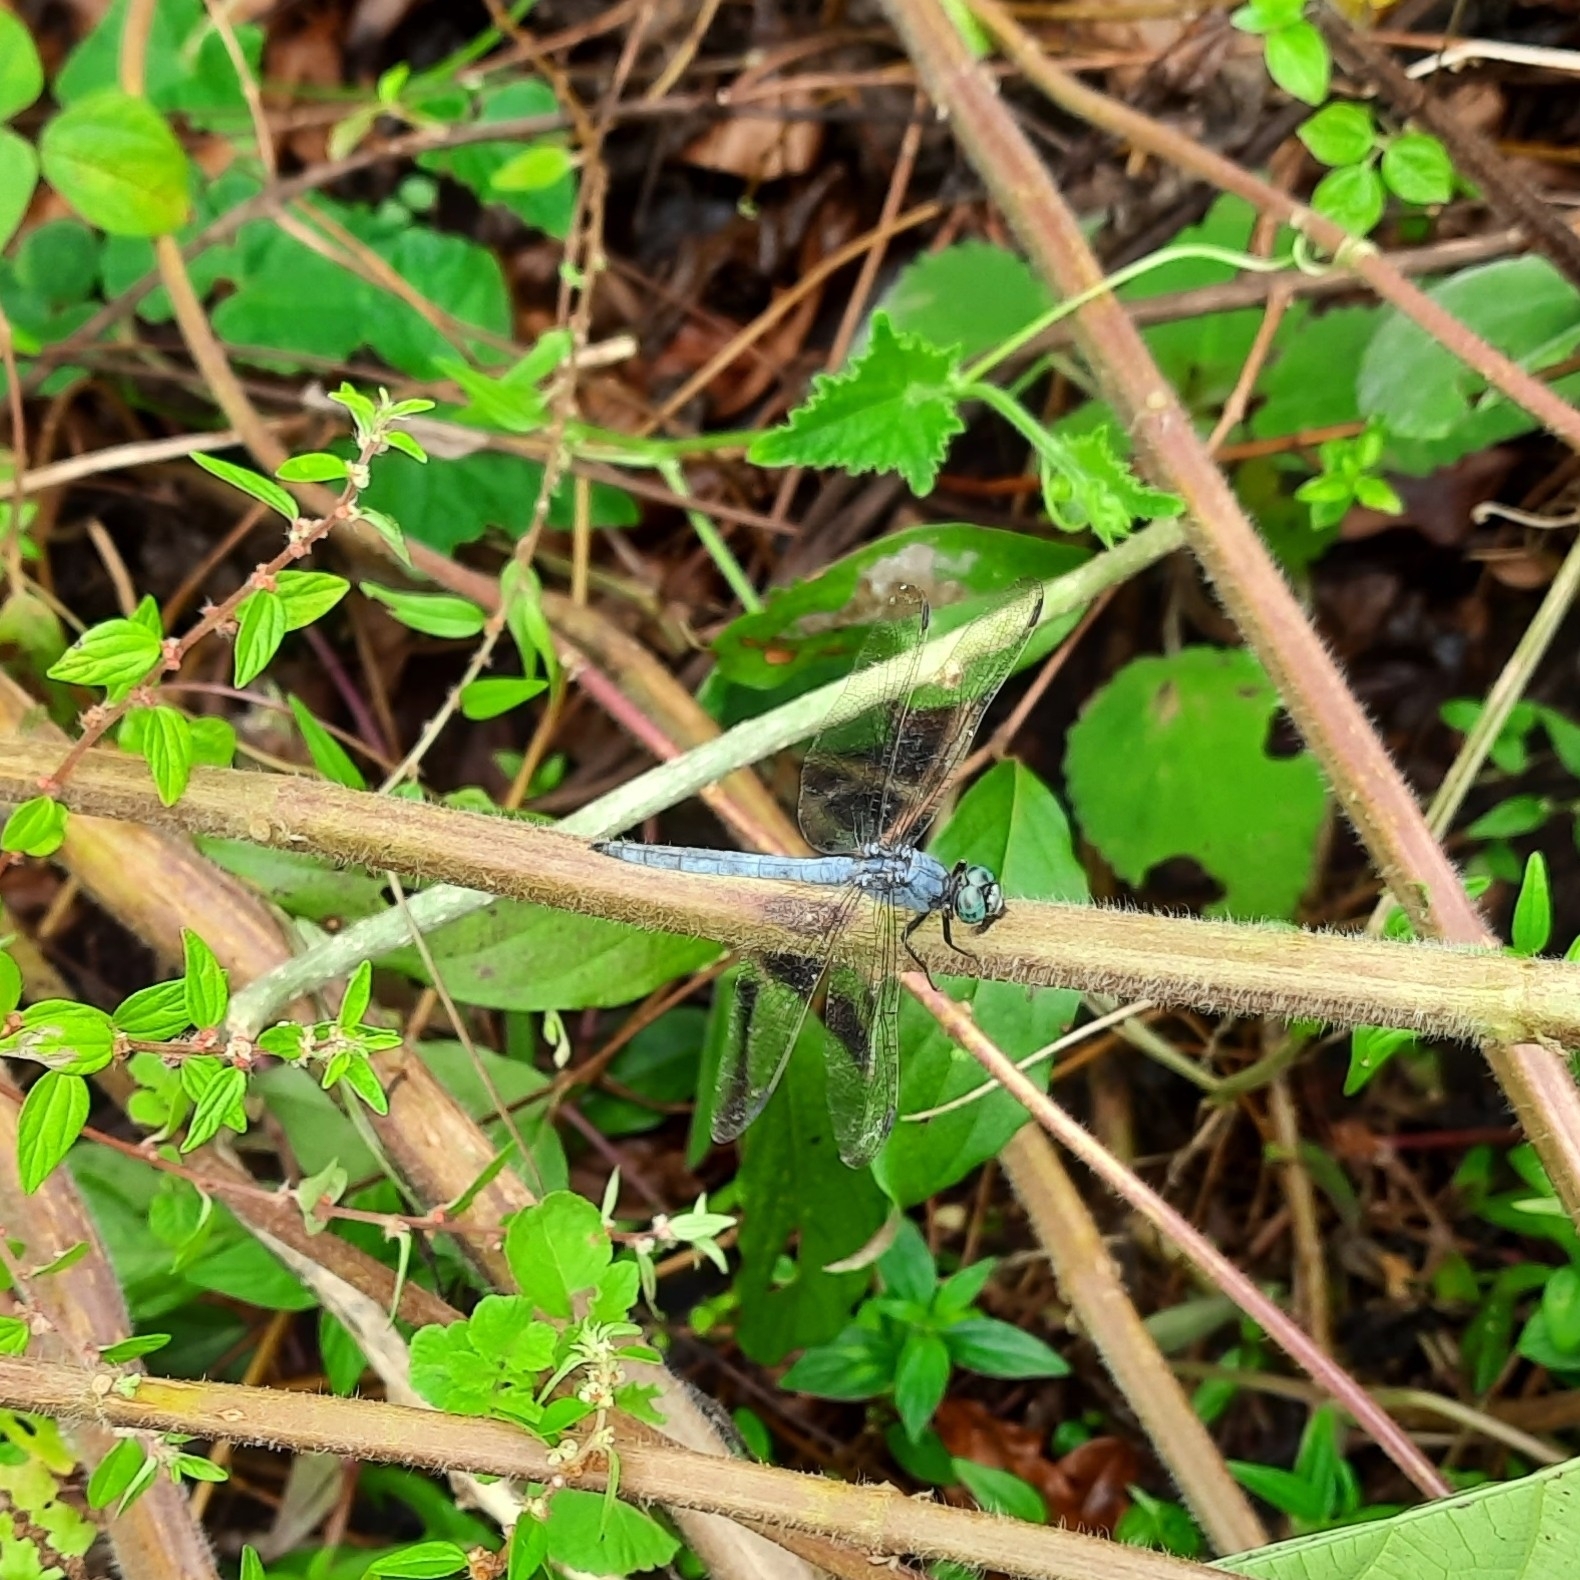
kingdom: Animalia
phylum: Arthropoda
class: Insecta
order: Odonata
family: Libellulidae
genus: Orthetrum
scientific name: Orthetrum luzonicum
